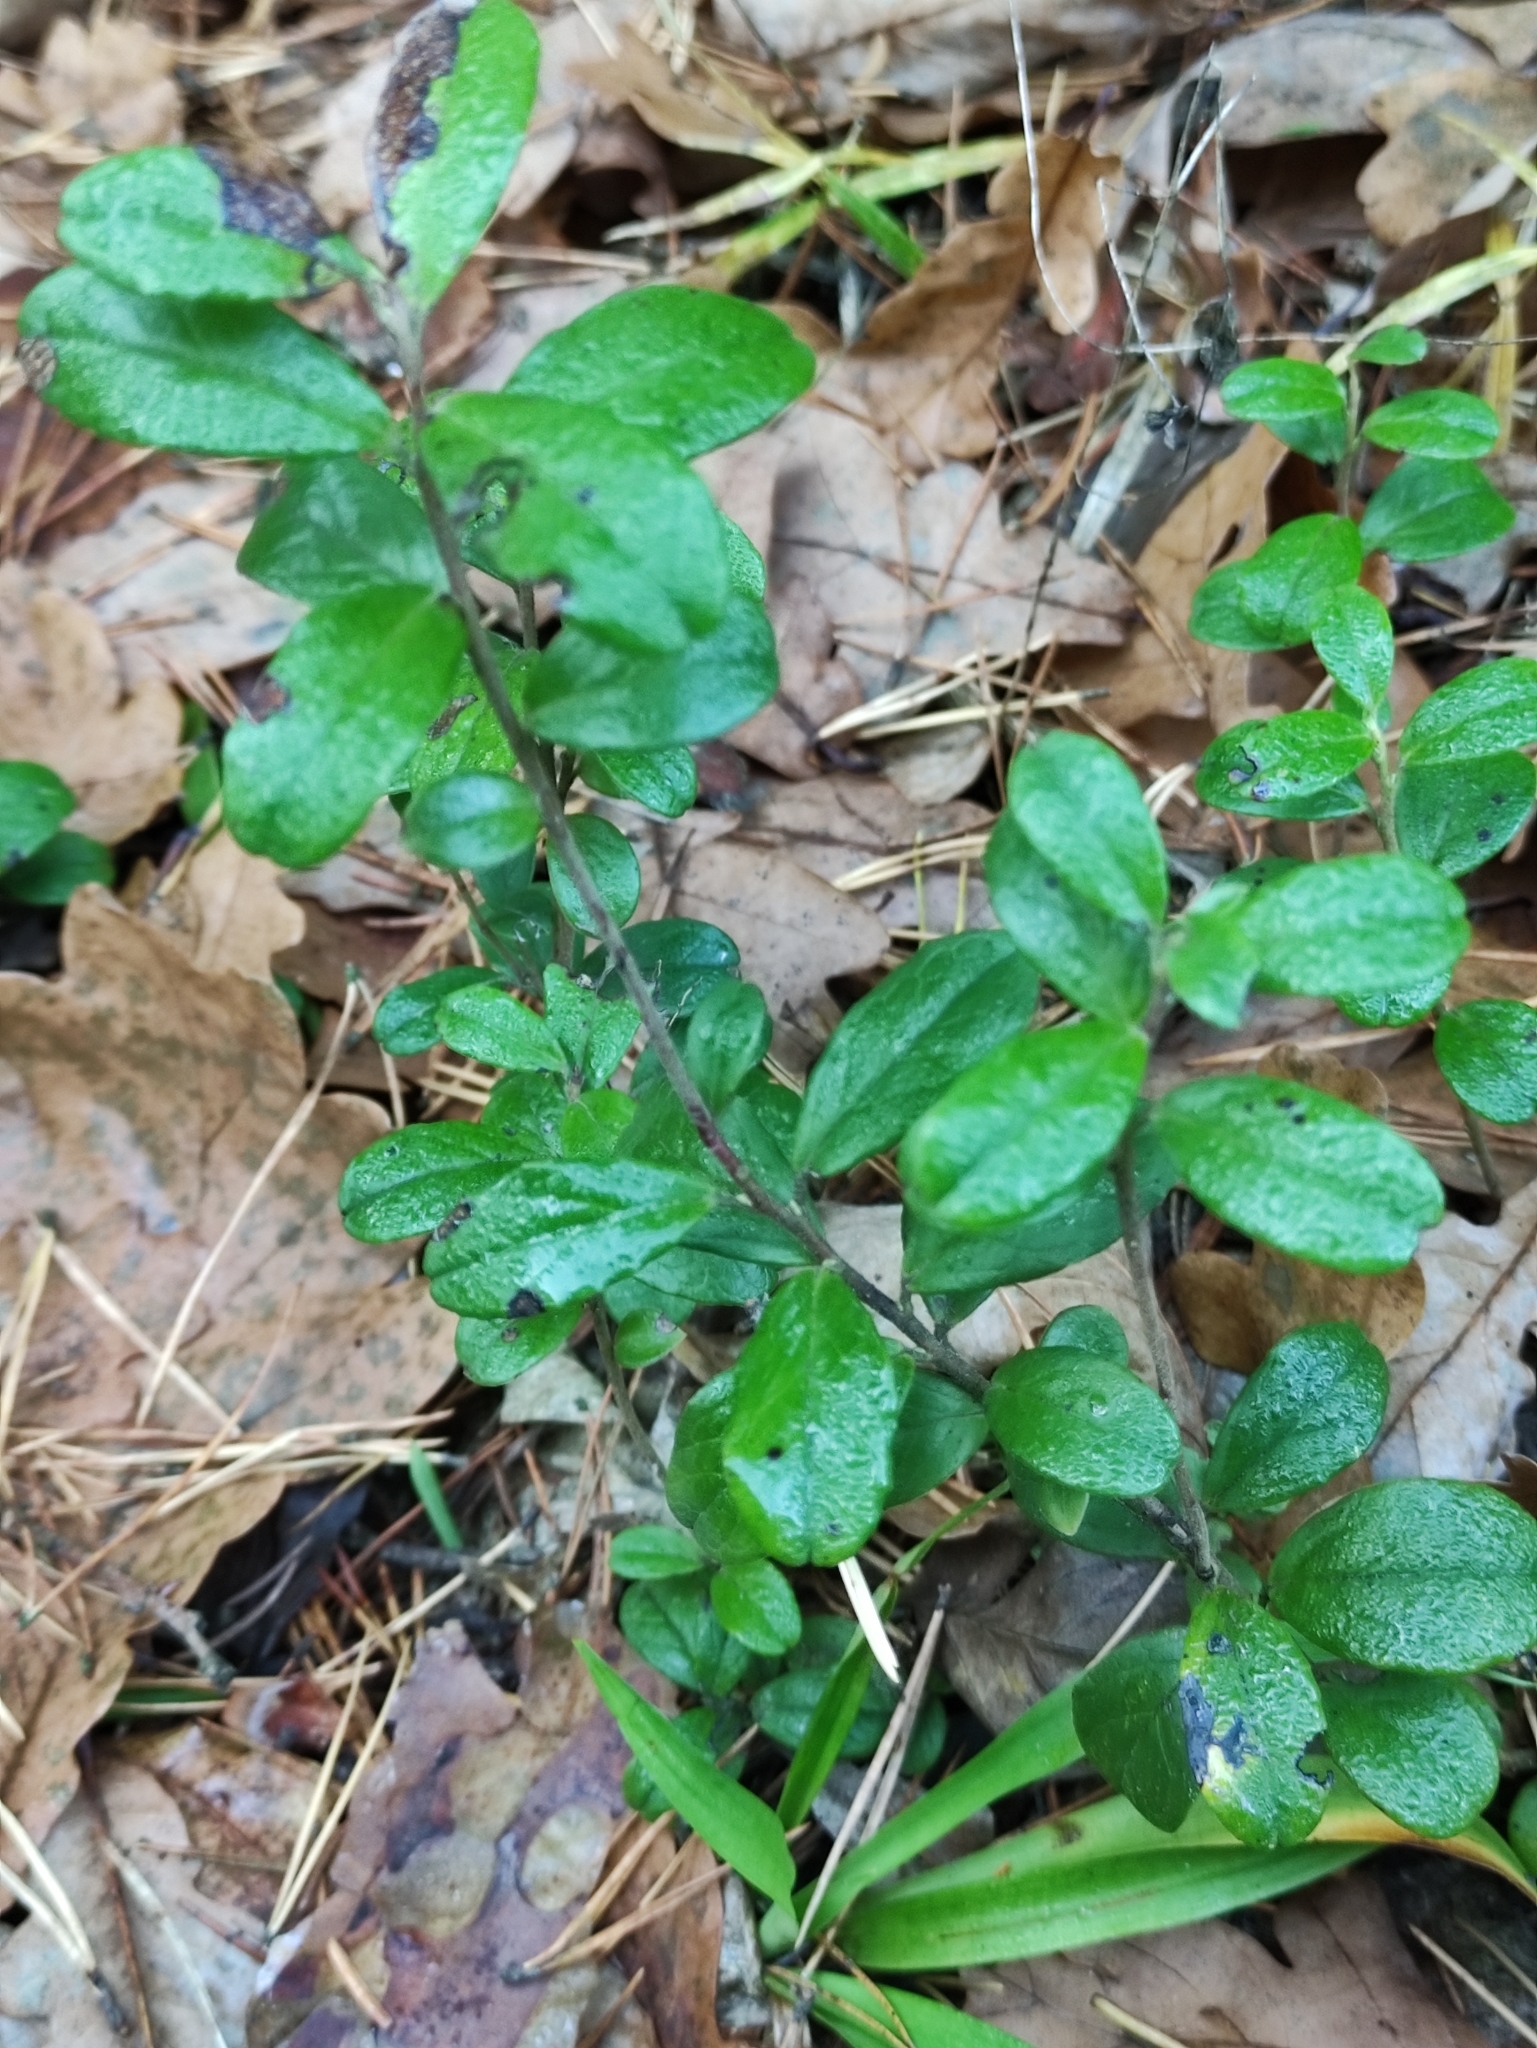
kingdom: Plantae
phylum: Tracheophyta
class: Magnoliopsida
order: Ericales
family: Ericaceae
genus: Vaccinium
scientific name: Vaccinium vitis-idaea
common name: Cowberry
